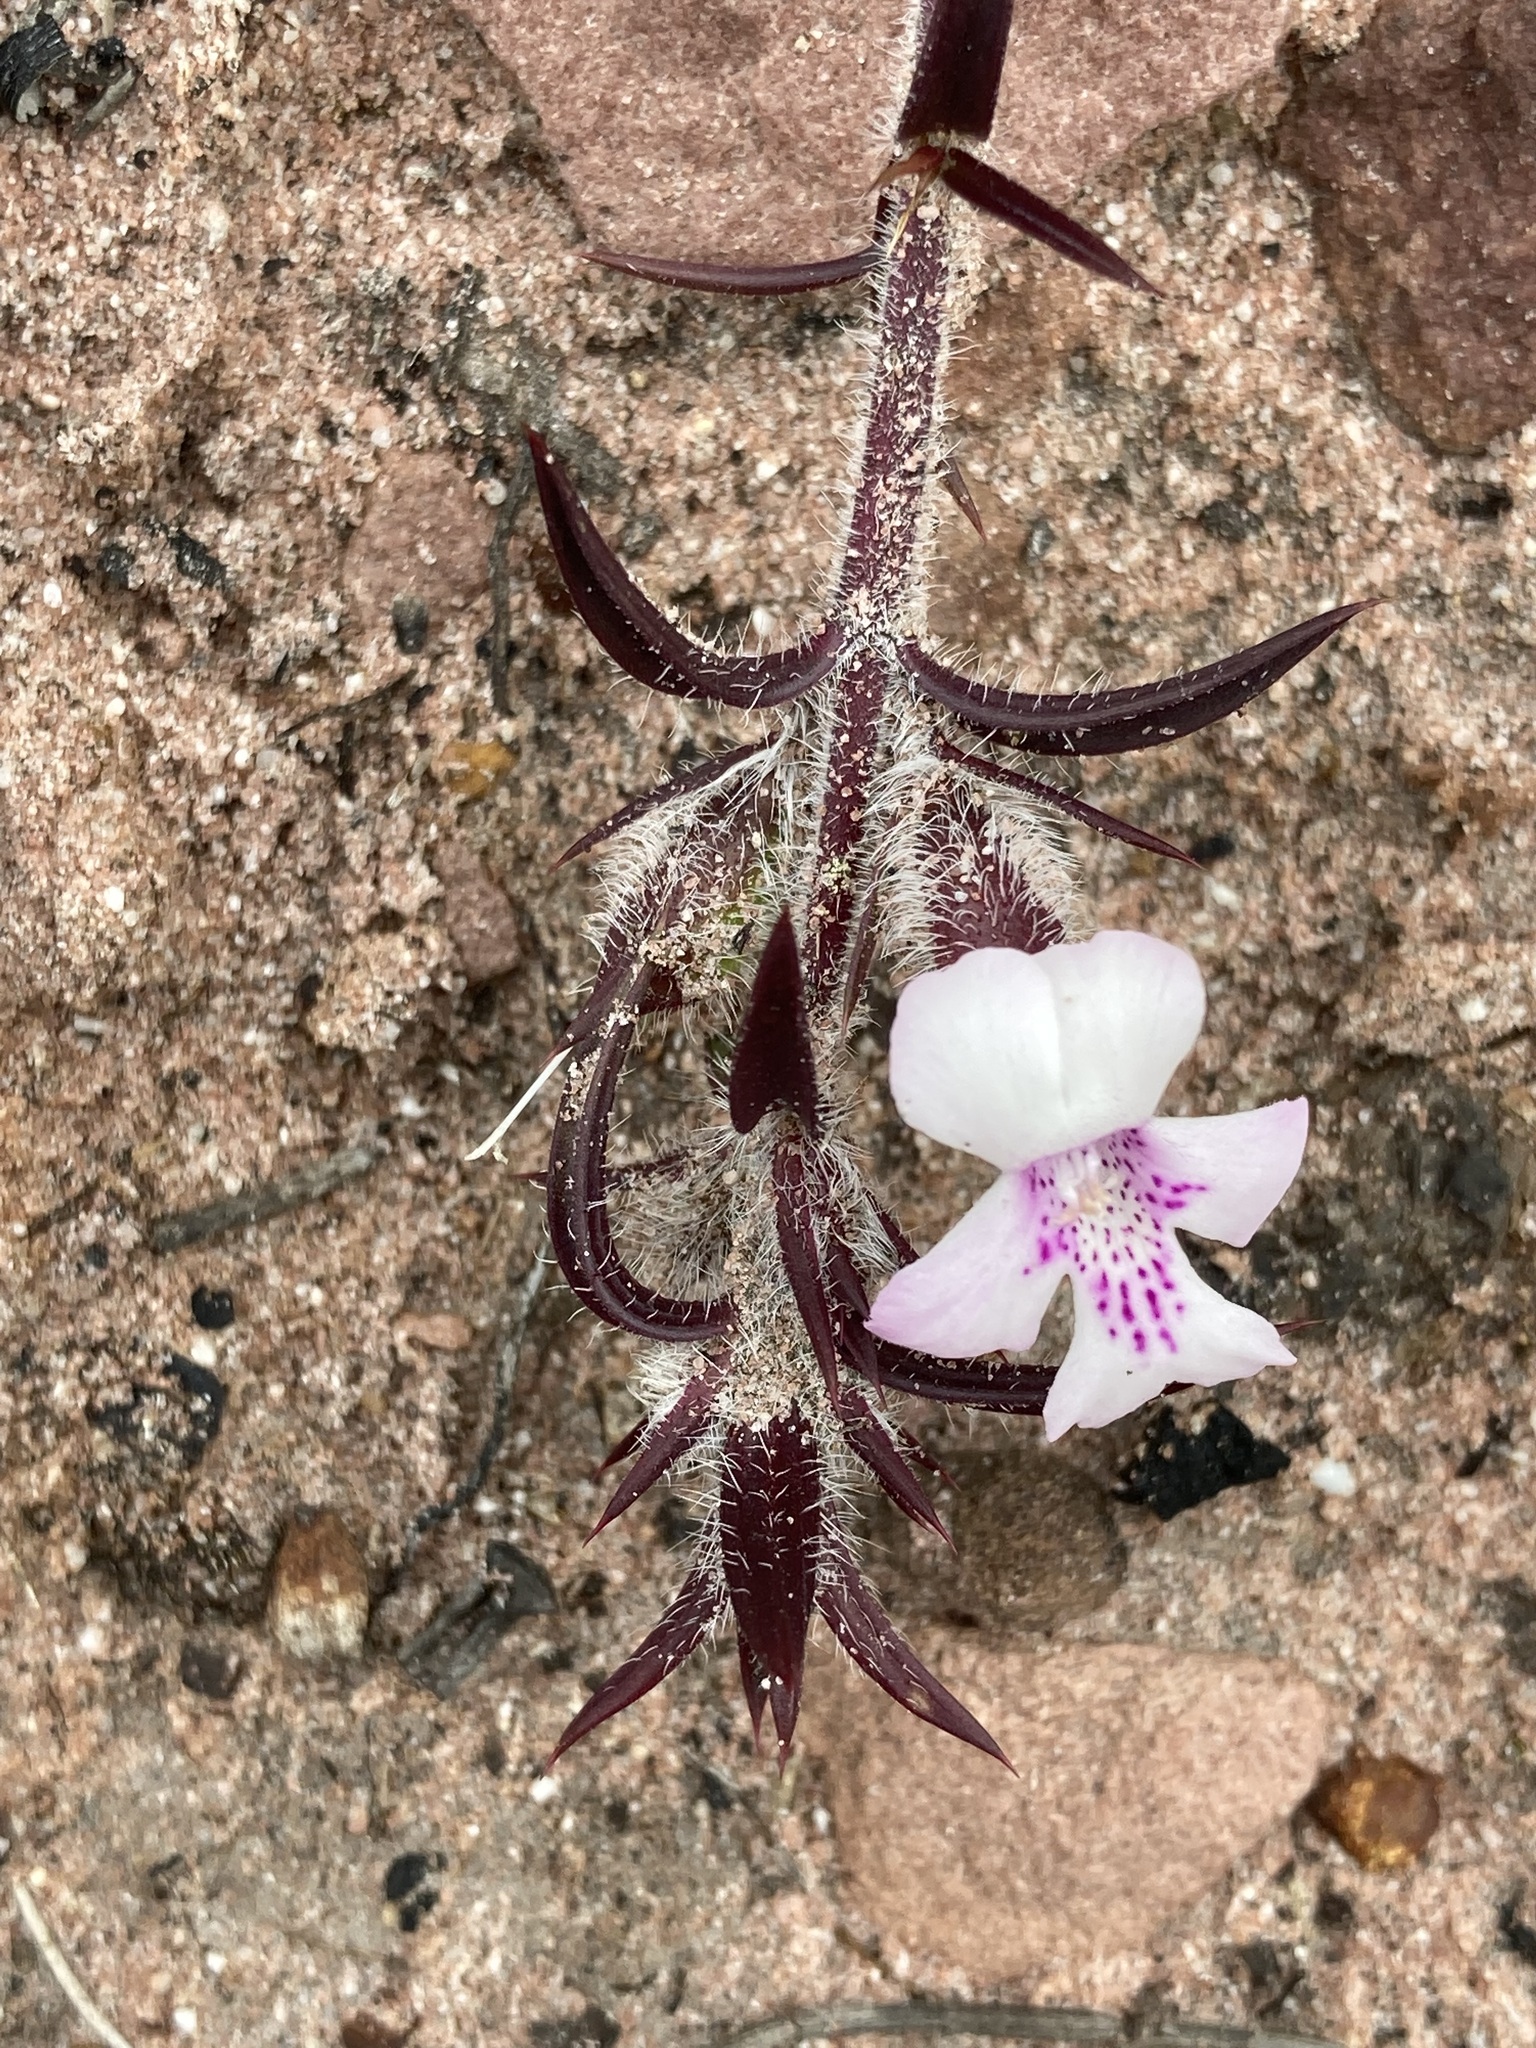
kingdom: Plantae
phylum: Tracheophyta
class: Magnoliopsida
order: Lamiales
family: Lamiaceae
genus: Hemiandra
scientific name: Hemiandra pungens
